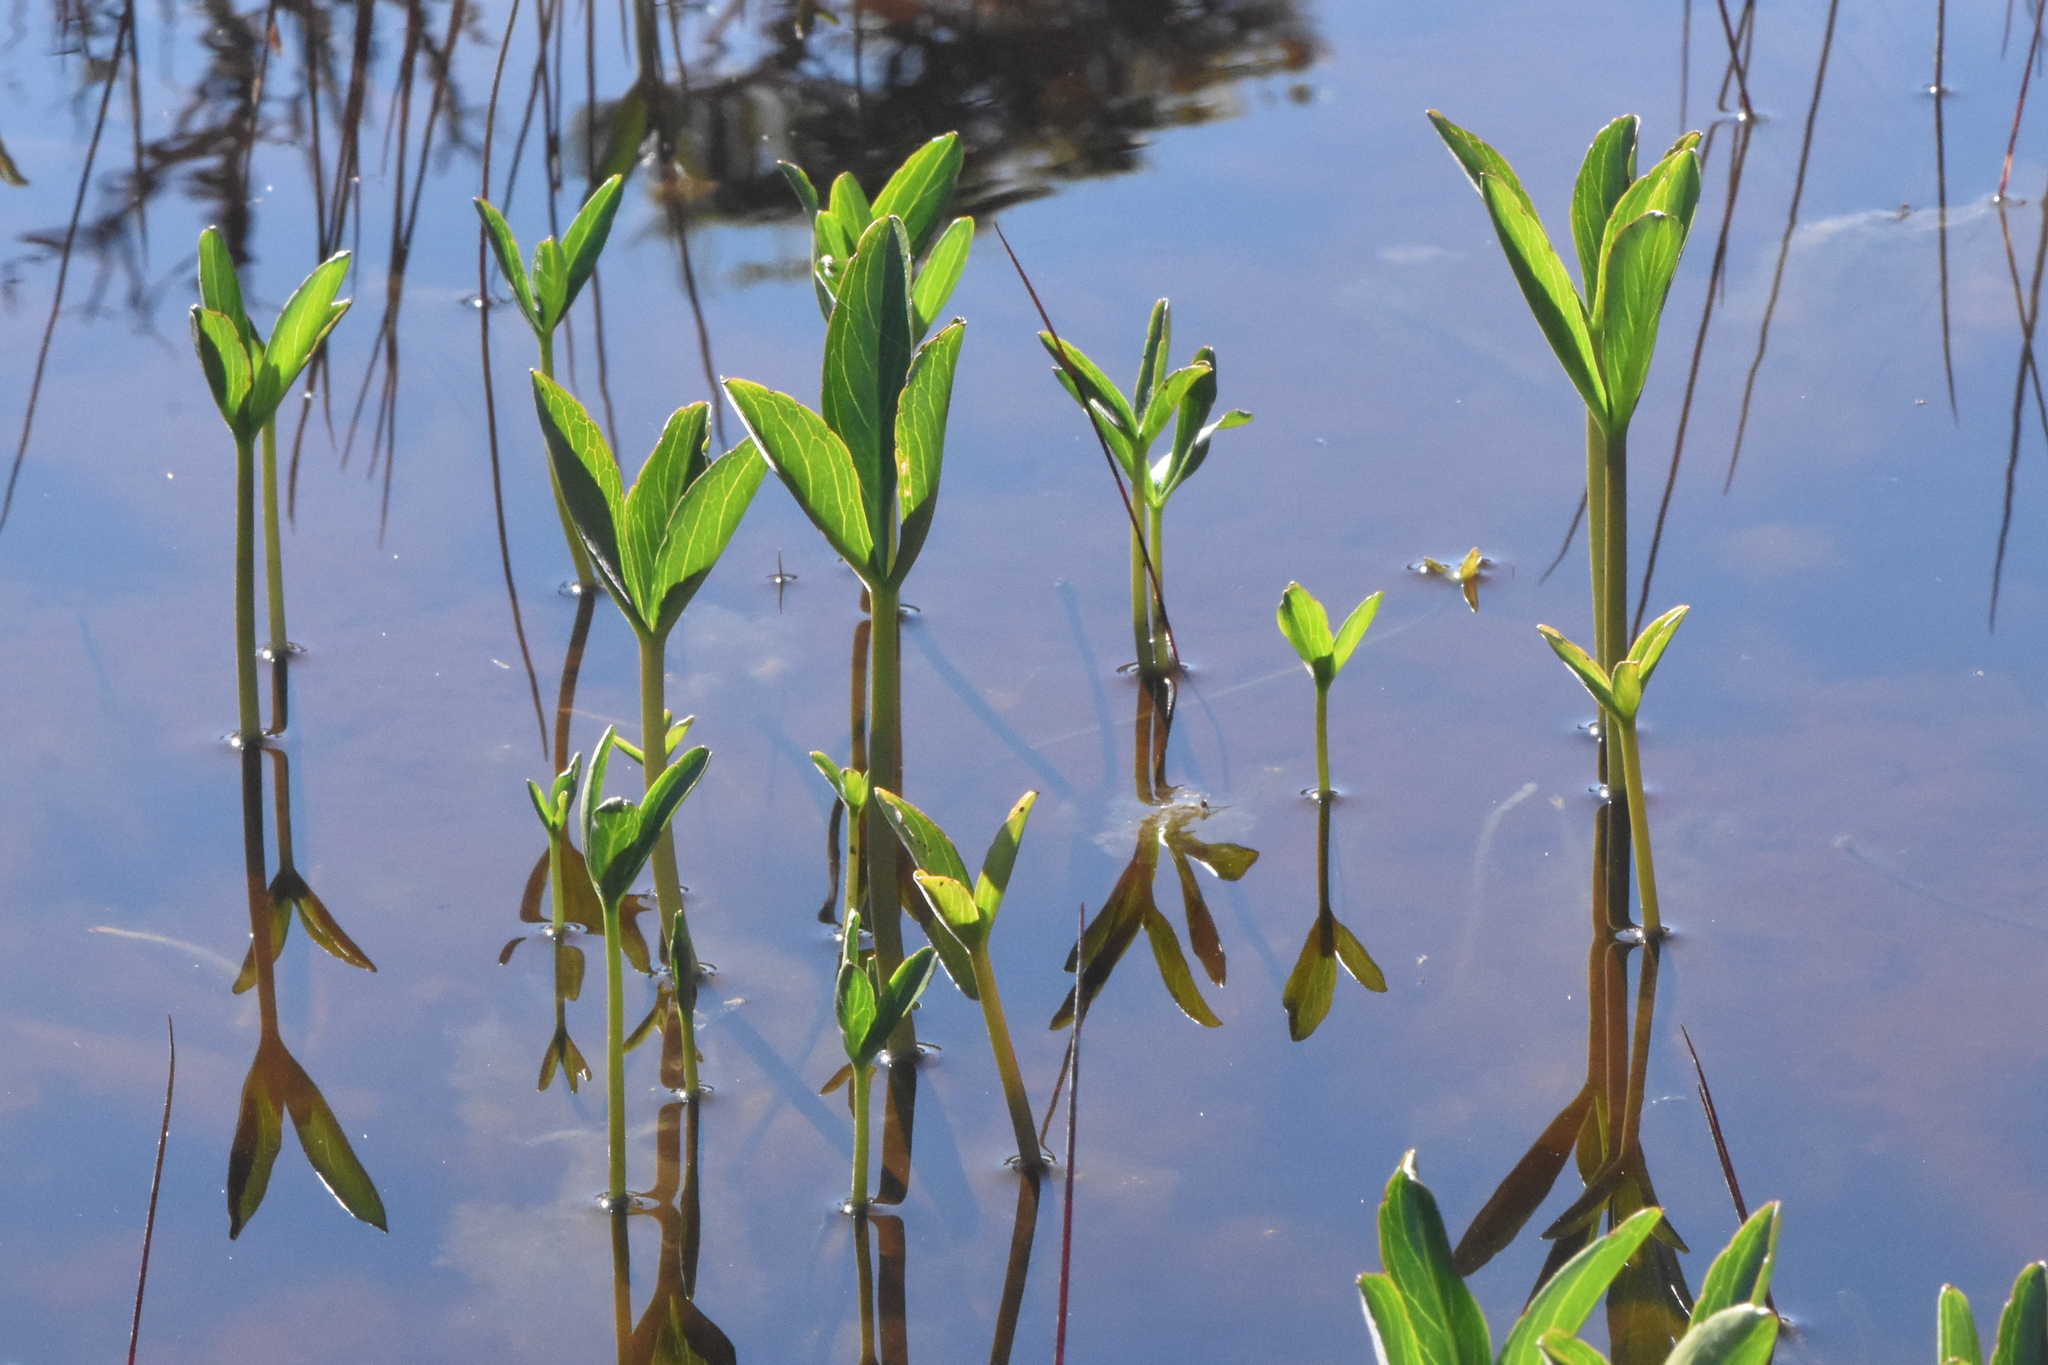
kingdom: Plantae
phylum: Tracheophyta
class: Magnoliopsida
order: Asterales
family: Menyanthaceae
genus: Menyanthes
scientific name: Menyanthes trifoliata
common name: Bogbean
